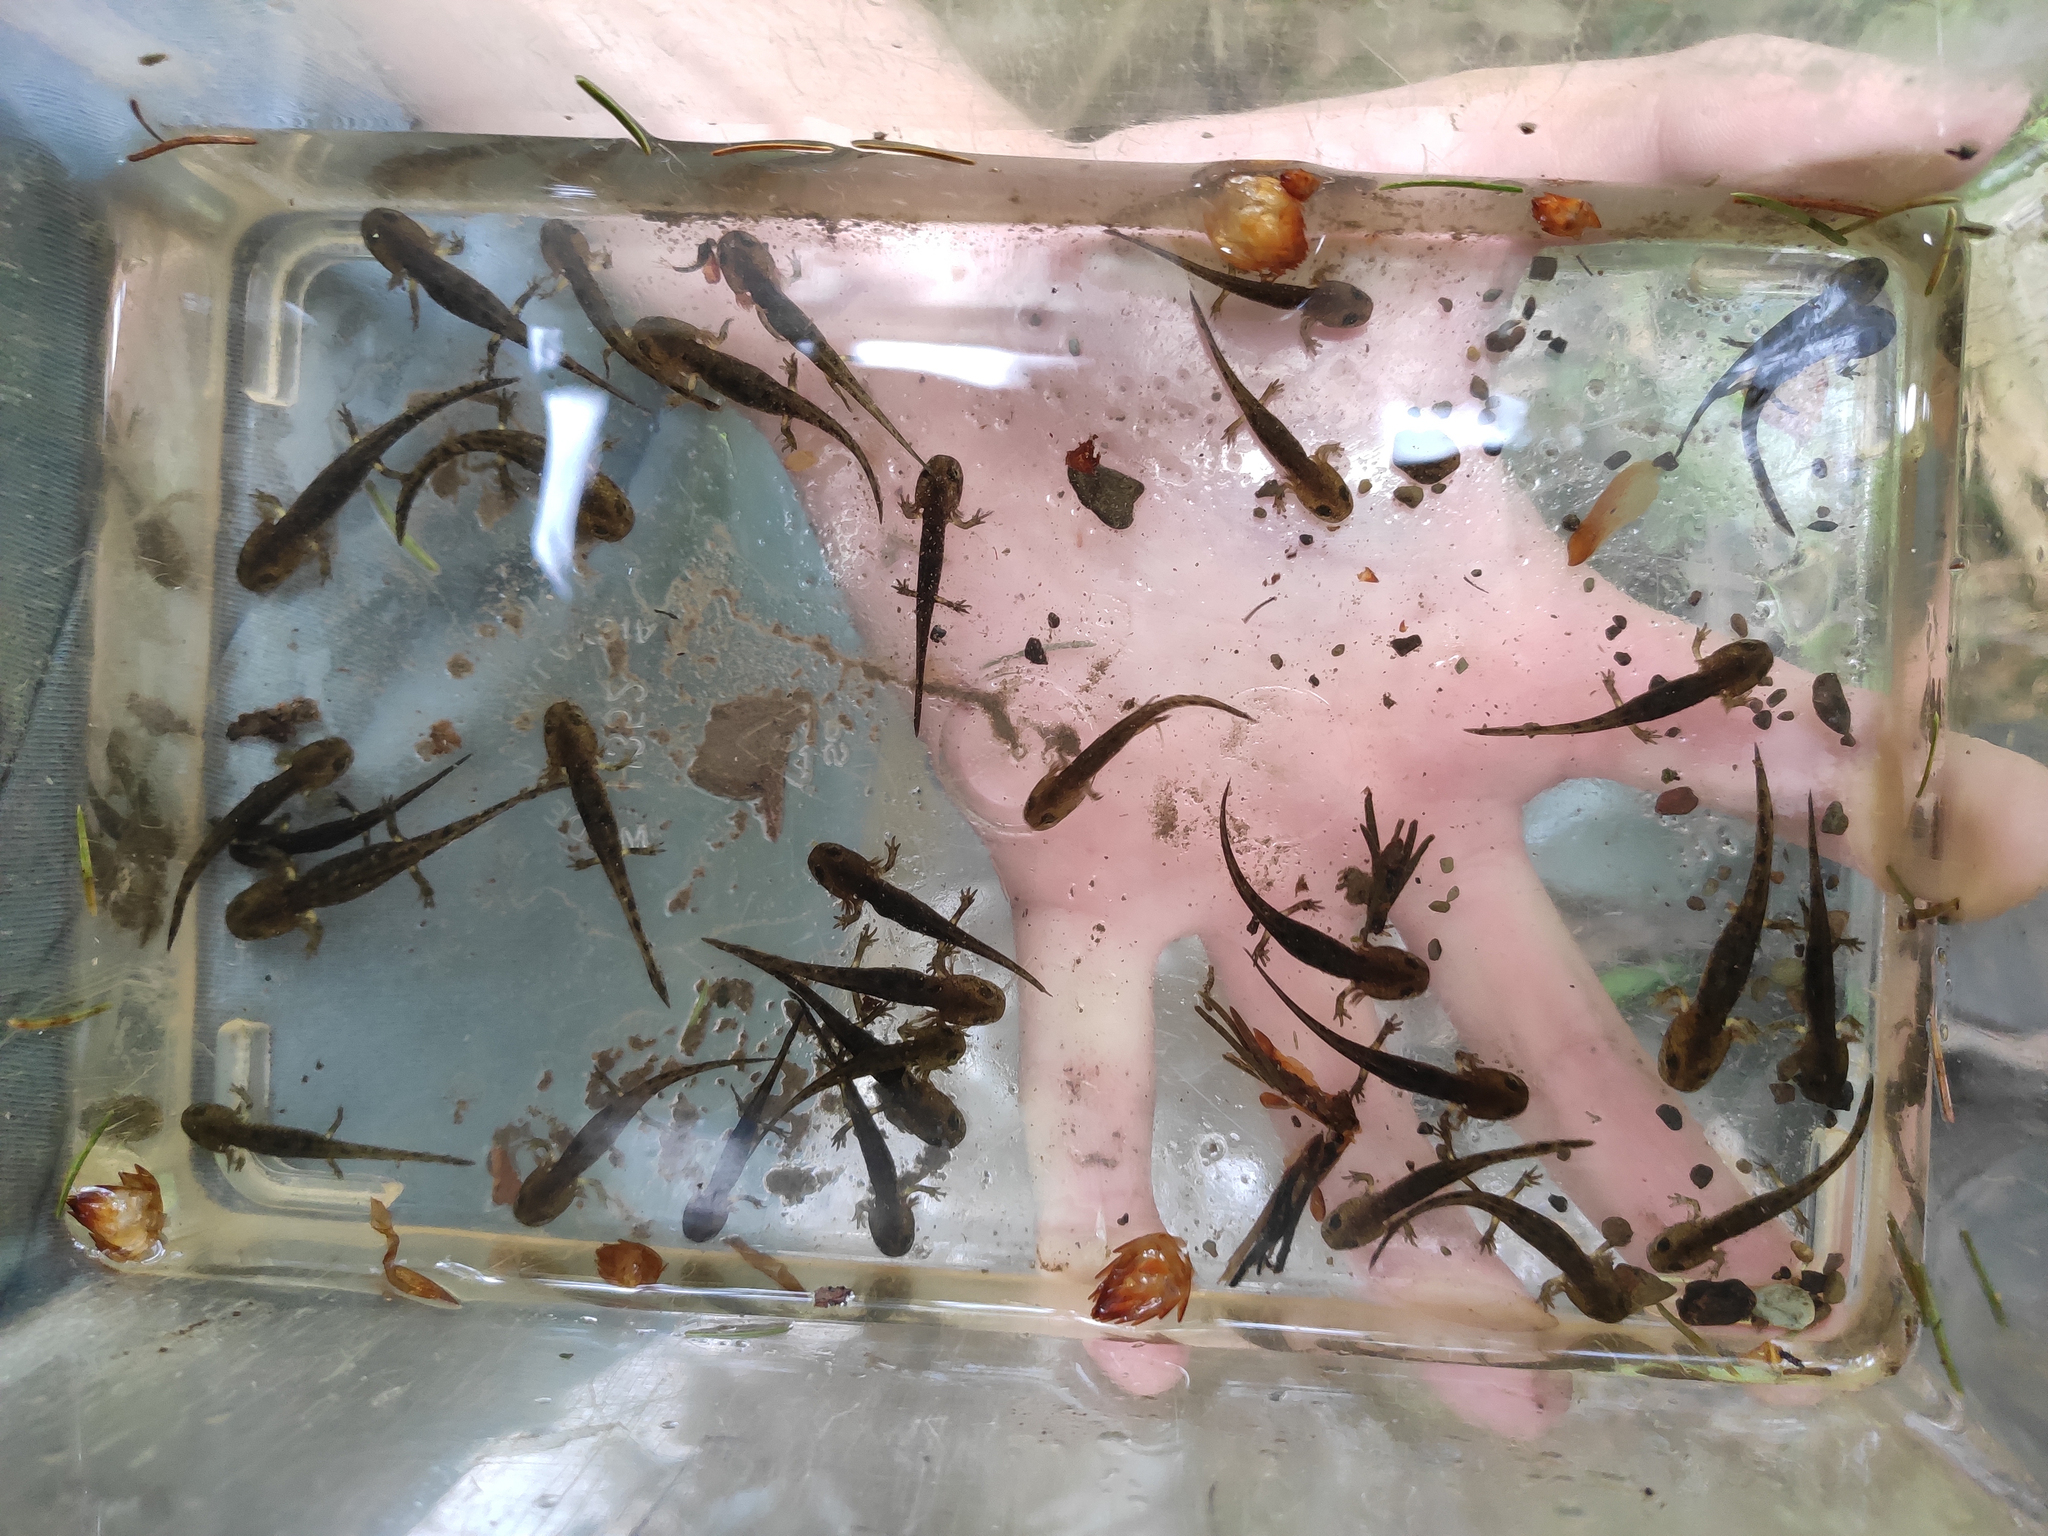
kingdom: Animalia
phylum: Chordata
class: Amphibia
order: Caudata
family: Salamandridae
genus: Salamandra
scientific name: Salamandra salamandra
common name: Fire salamander
